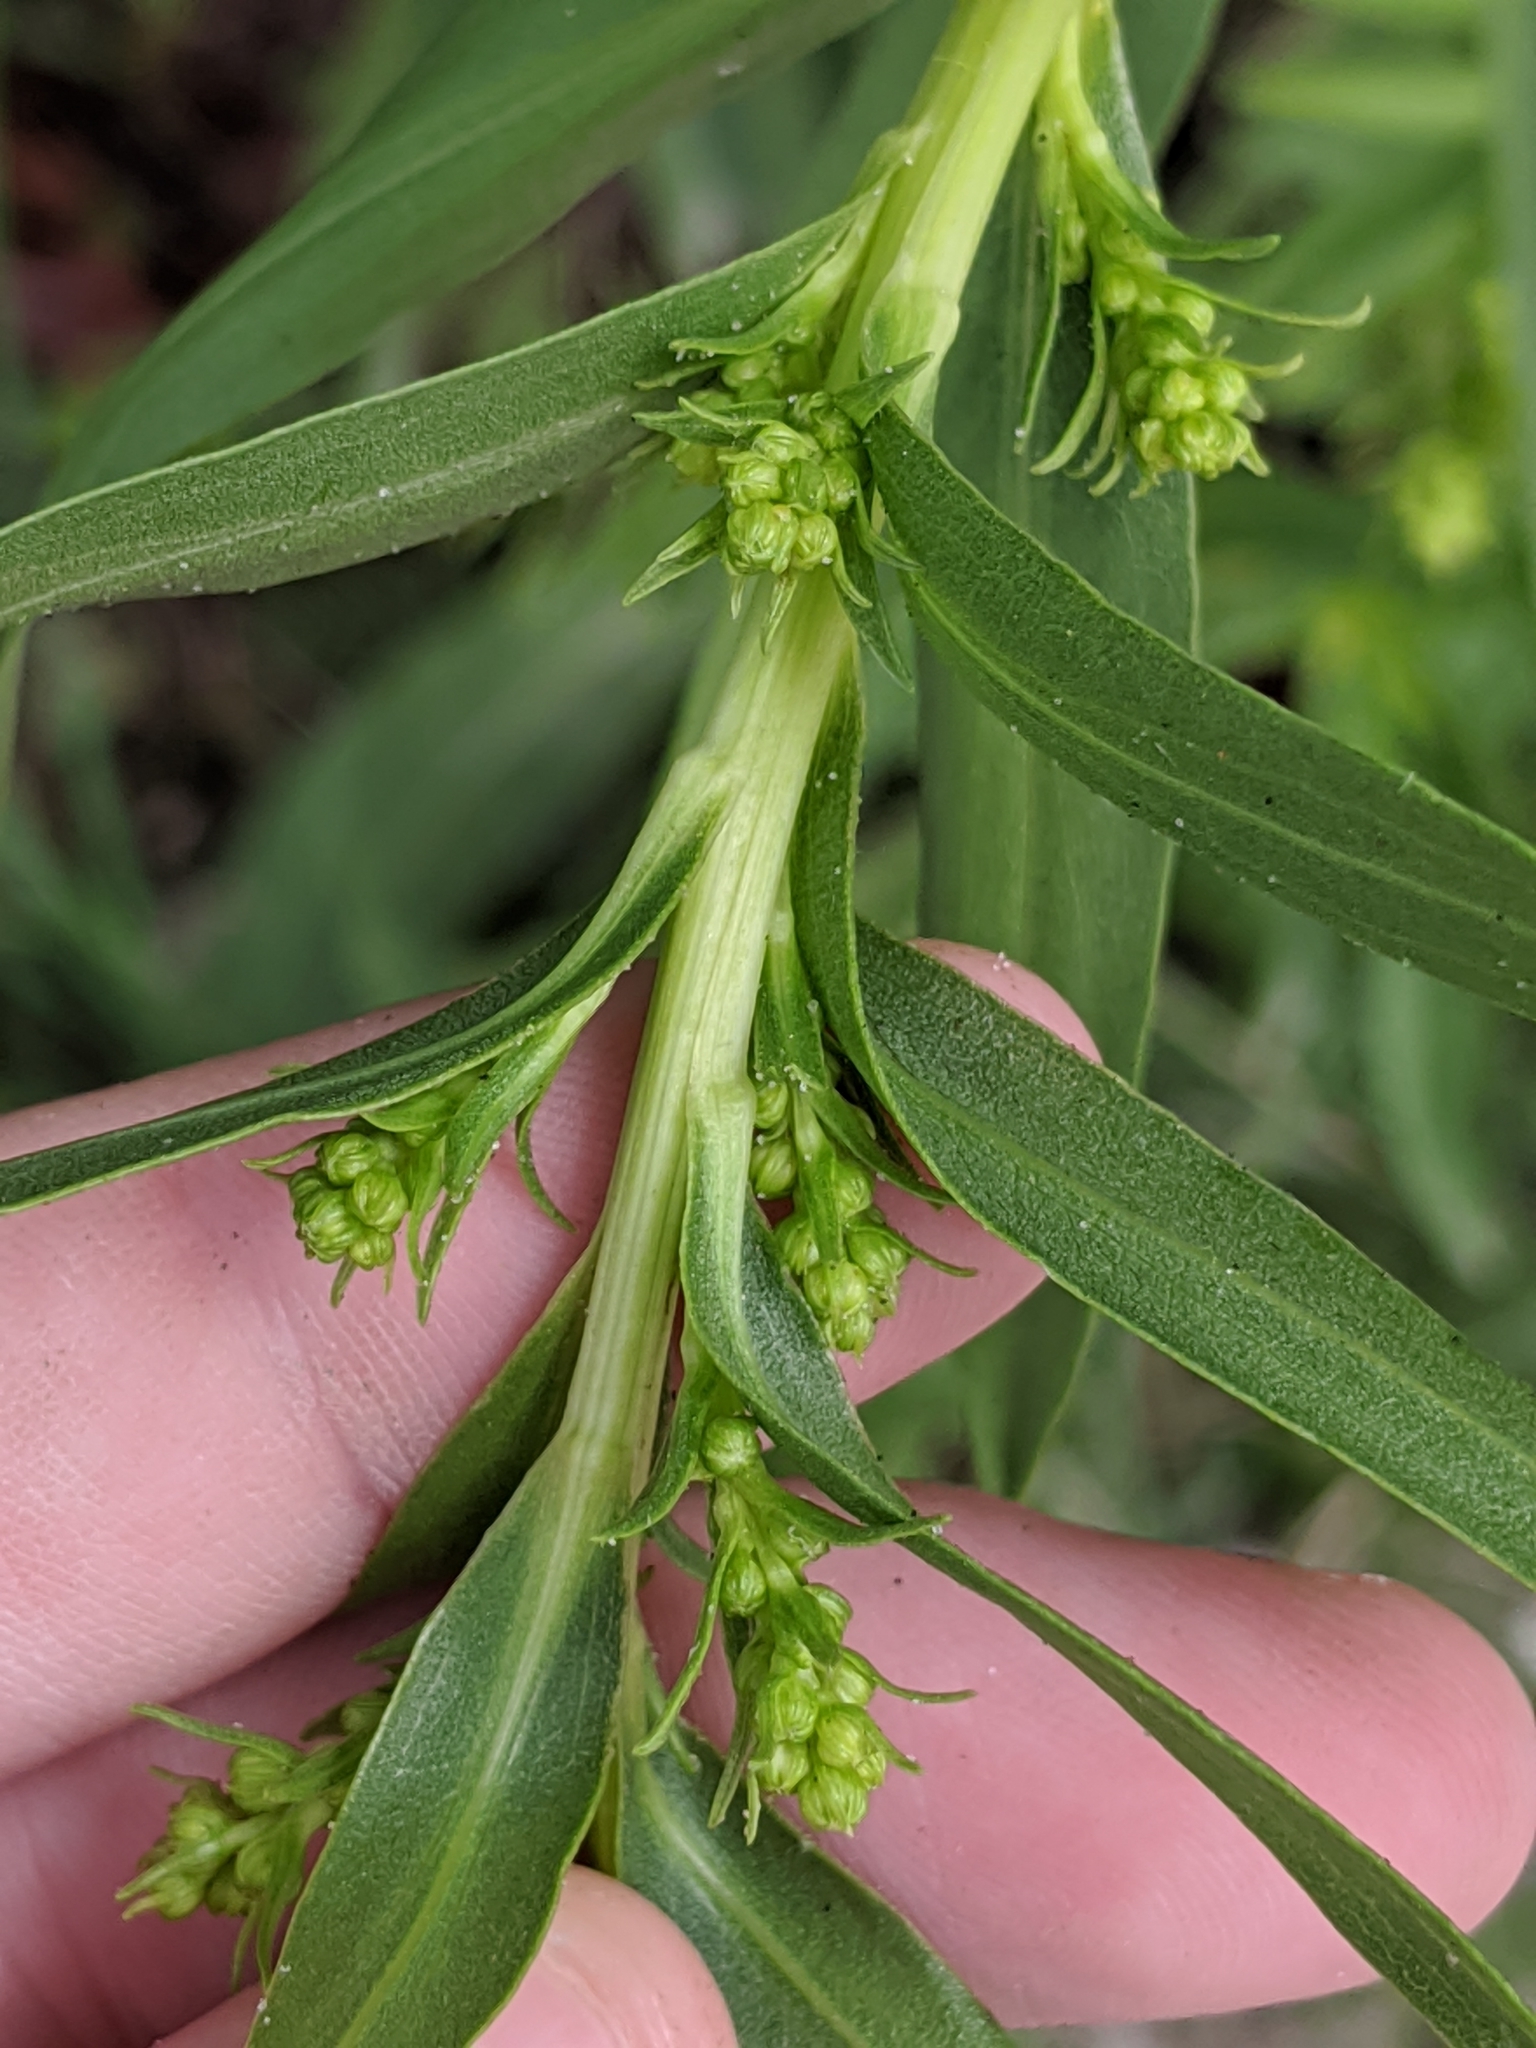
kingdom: Plantae
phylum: Tracheophyta
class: Magnoliopsida
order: Asterales
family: Asteraceae
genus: Solidago
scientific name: Solidago sempervirens
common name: Salt-marsh goldenrod
